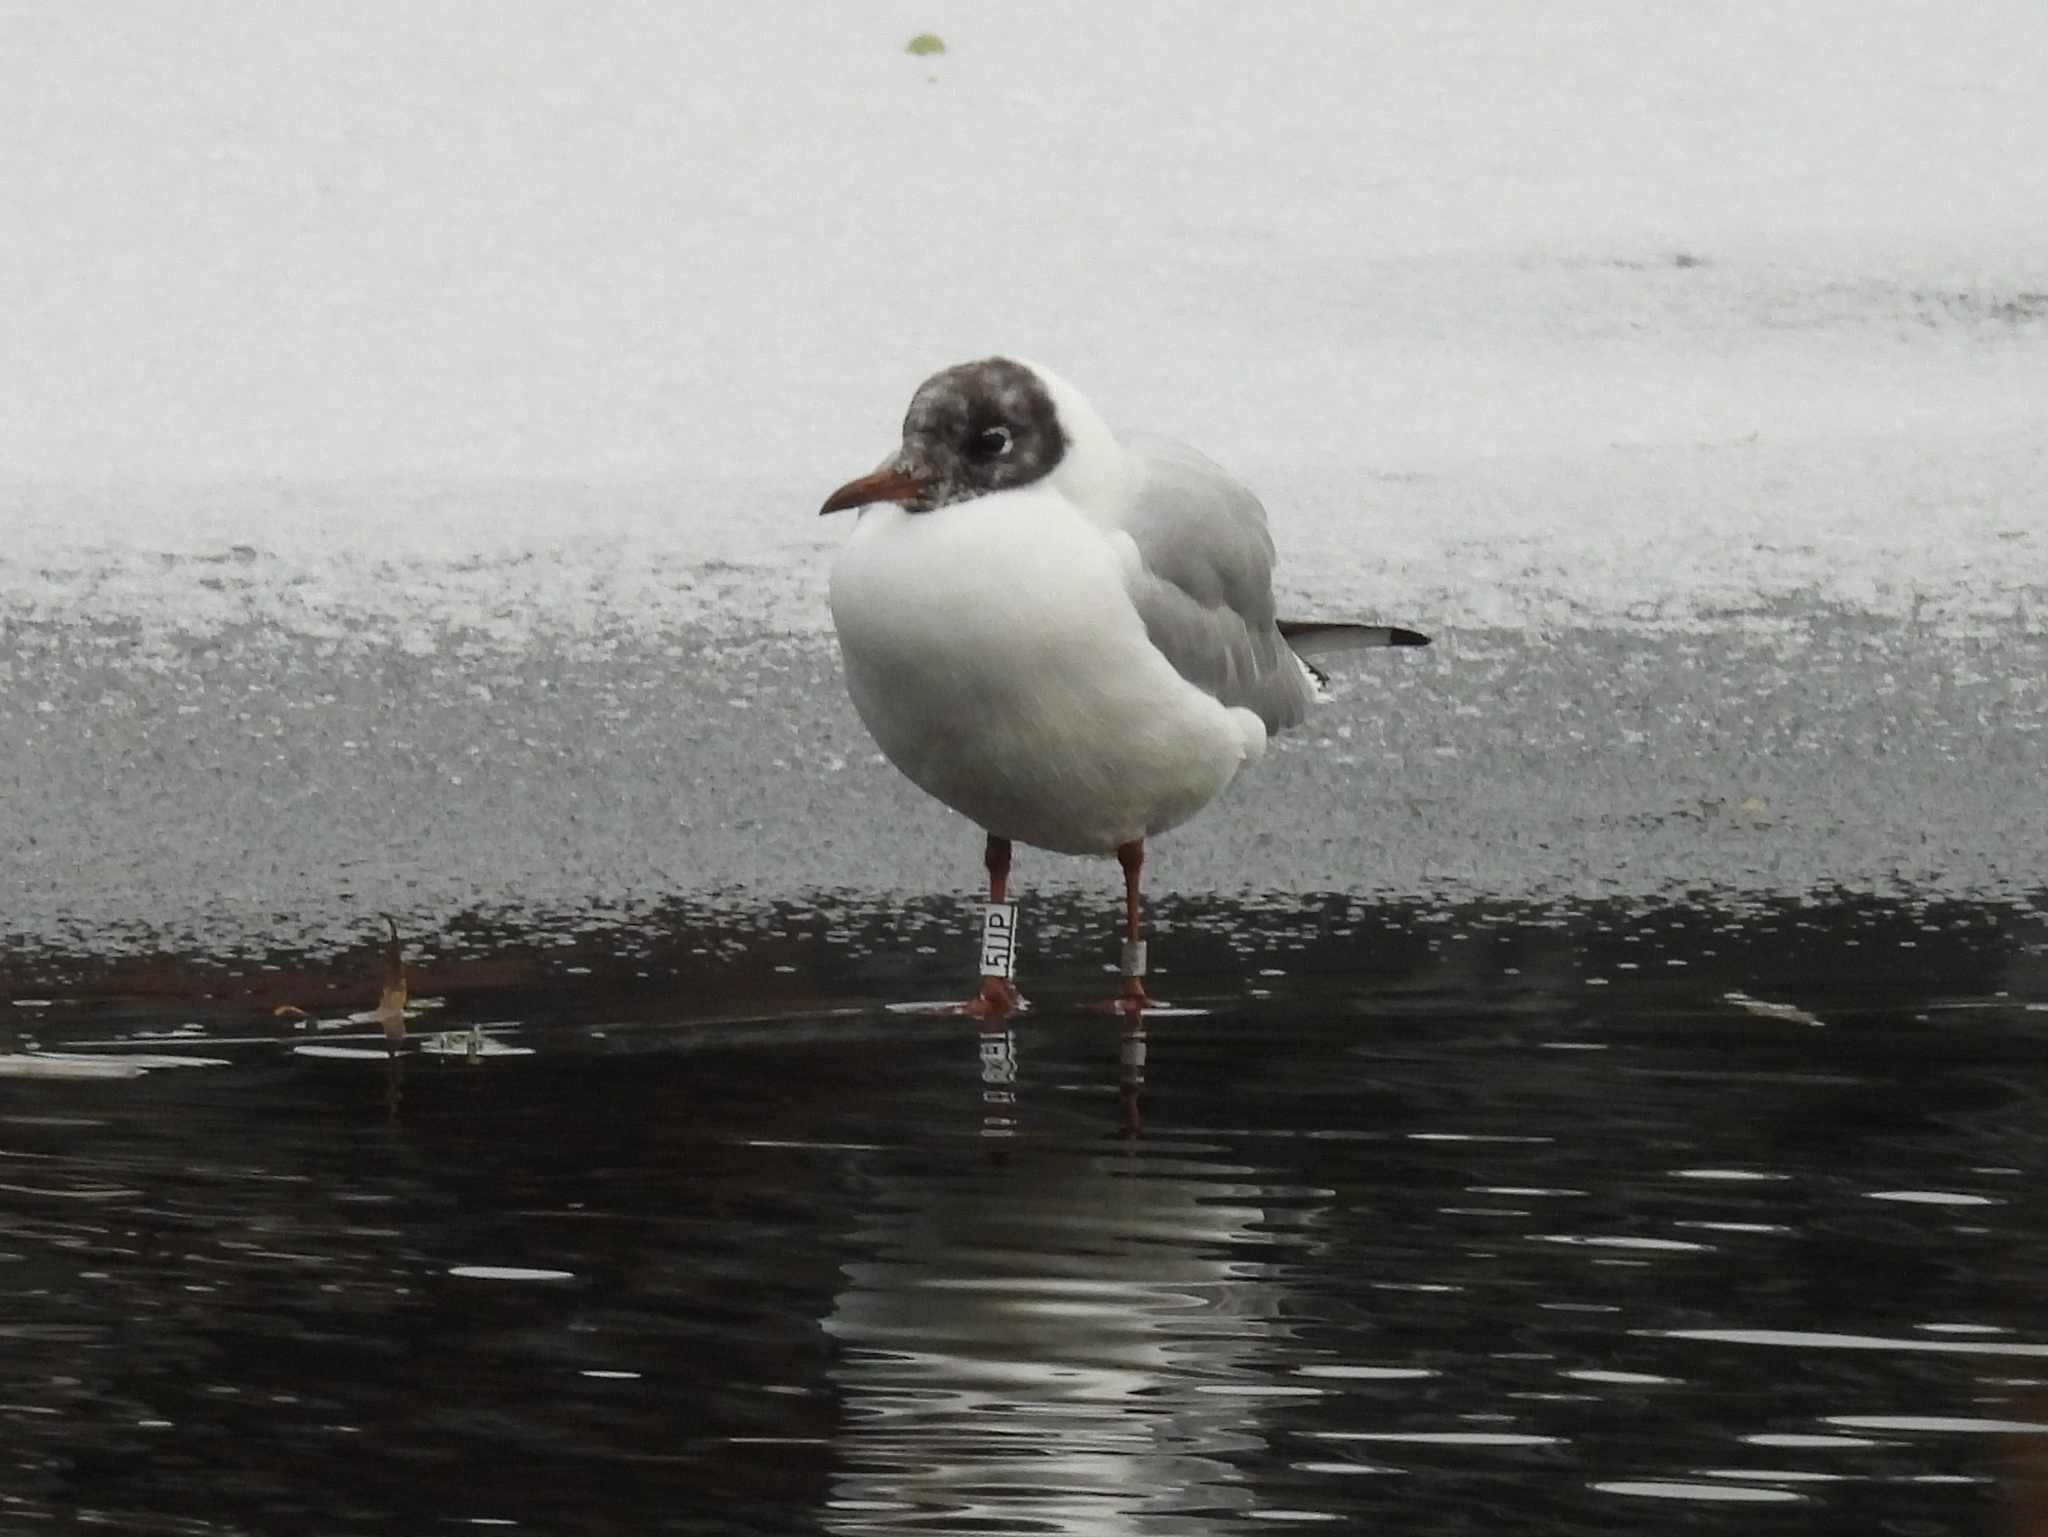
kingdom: Animalia
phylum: Chordata
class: Aves
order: Charadriiformes
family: Laridae
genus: Chroicocephalus
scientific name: Chroicocephalus ridibundus
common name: Black-headed gull
